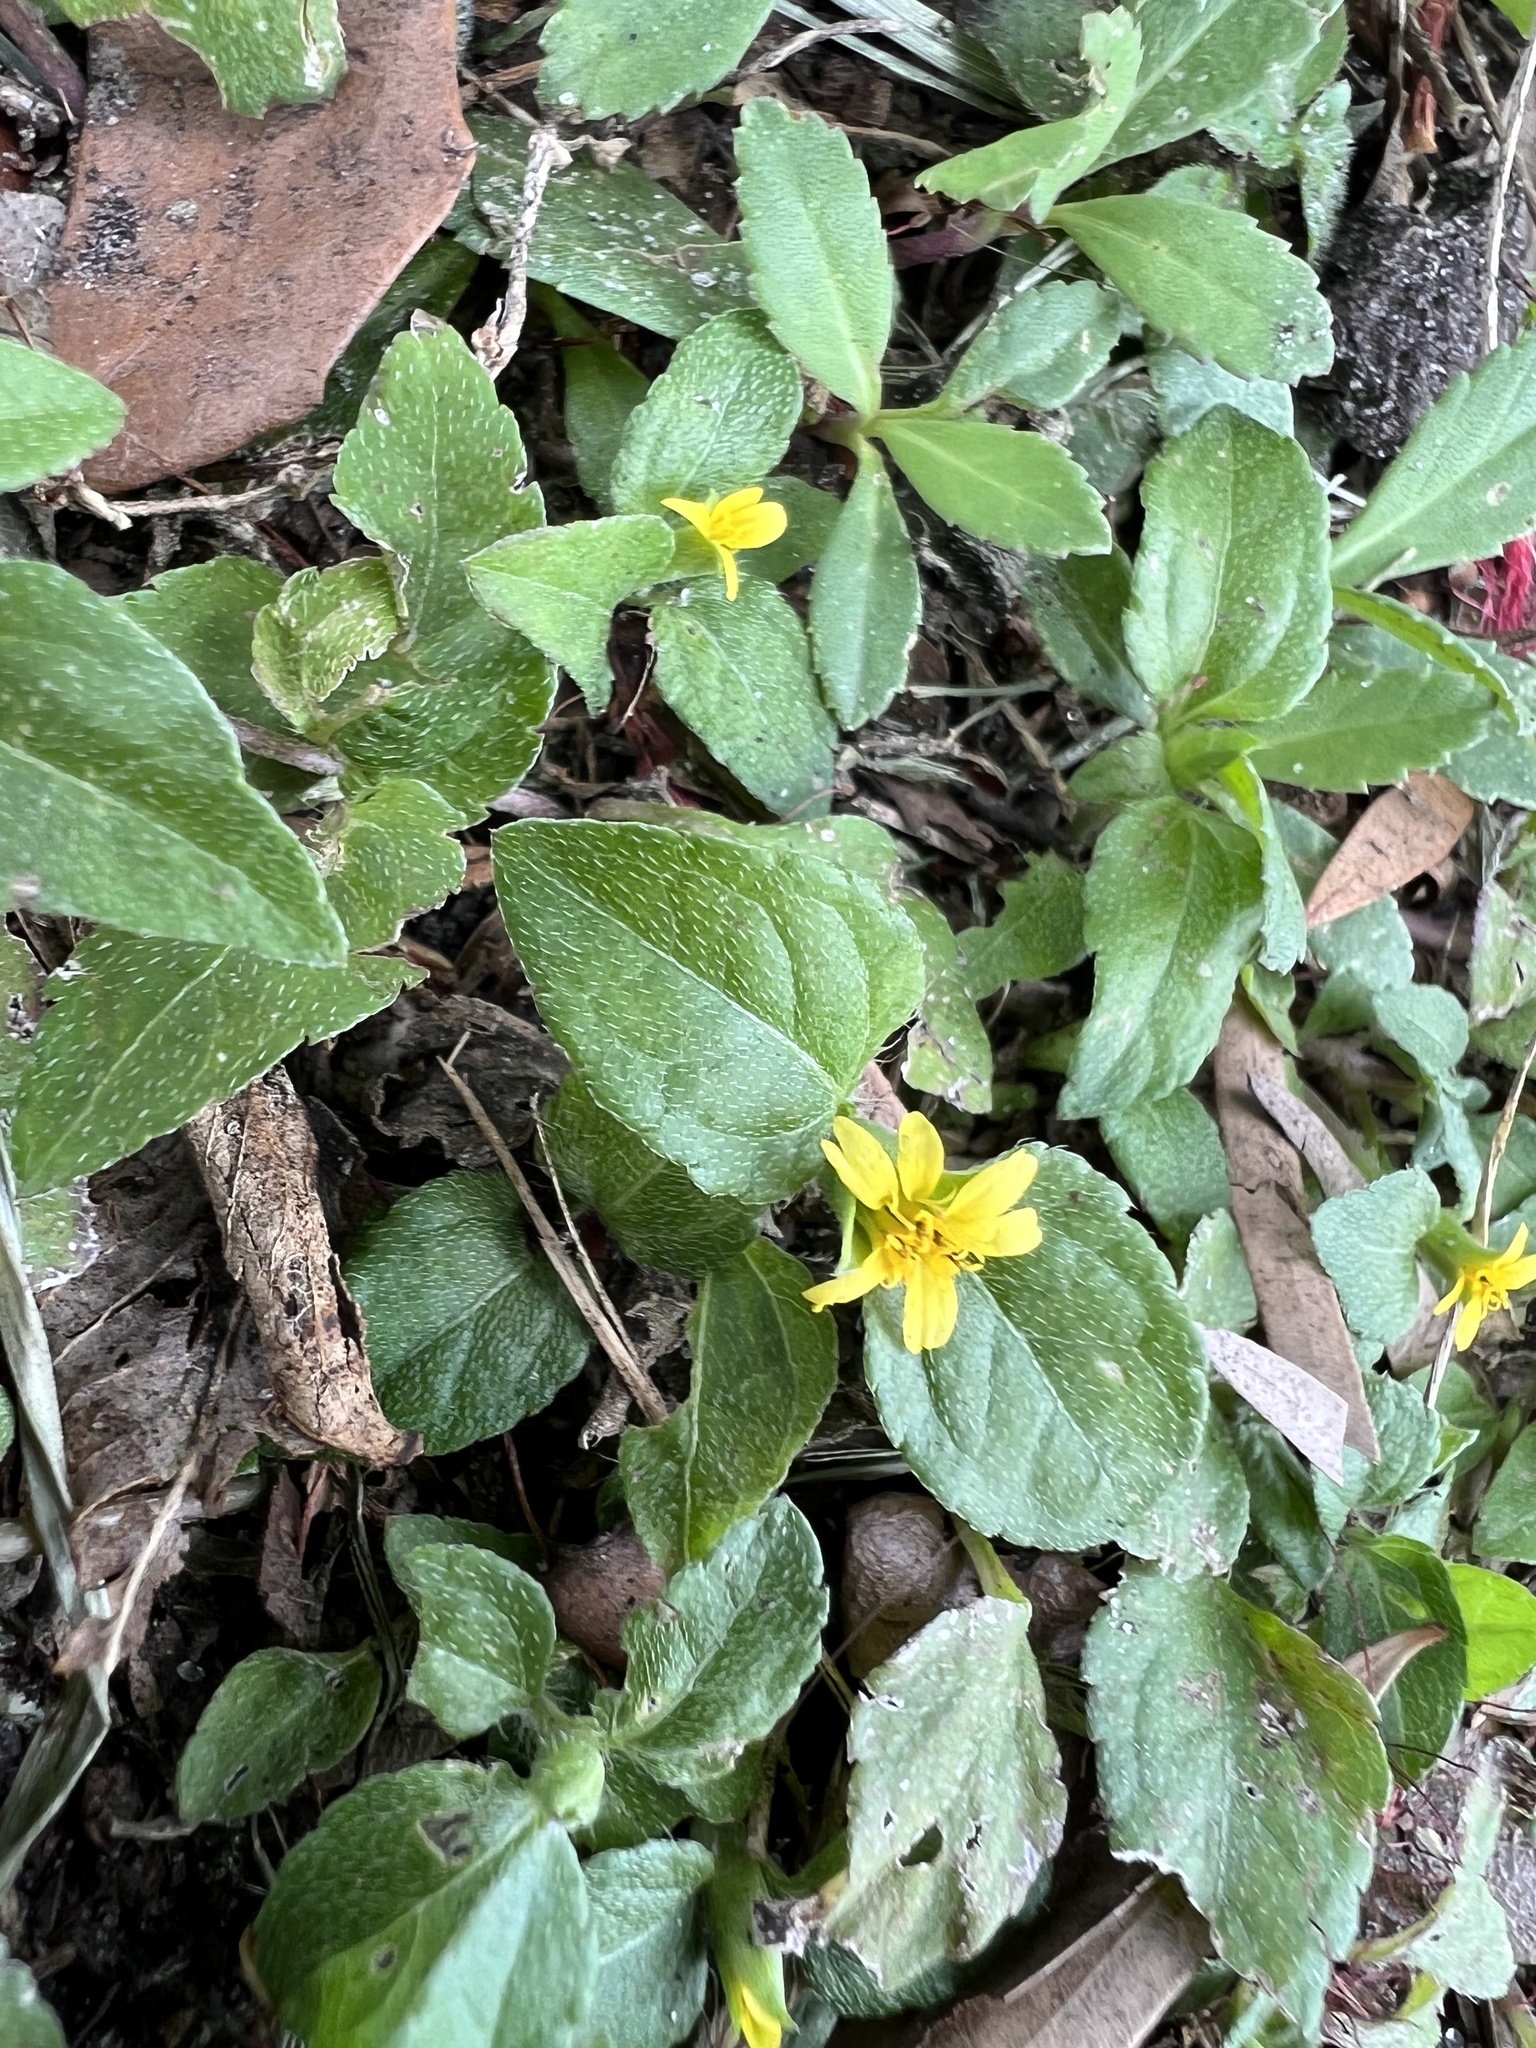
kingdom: Plantae
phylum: Tracheophyta
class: Magnoliopsida
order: Asterales
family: Asteraceae
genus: Calyptocarpus
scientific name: Calyptocarpus vialis
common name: Straggler daisy
